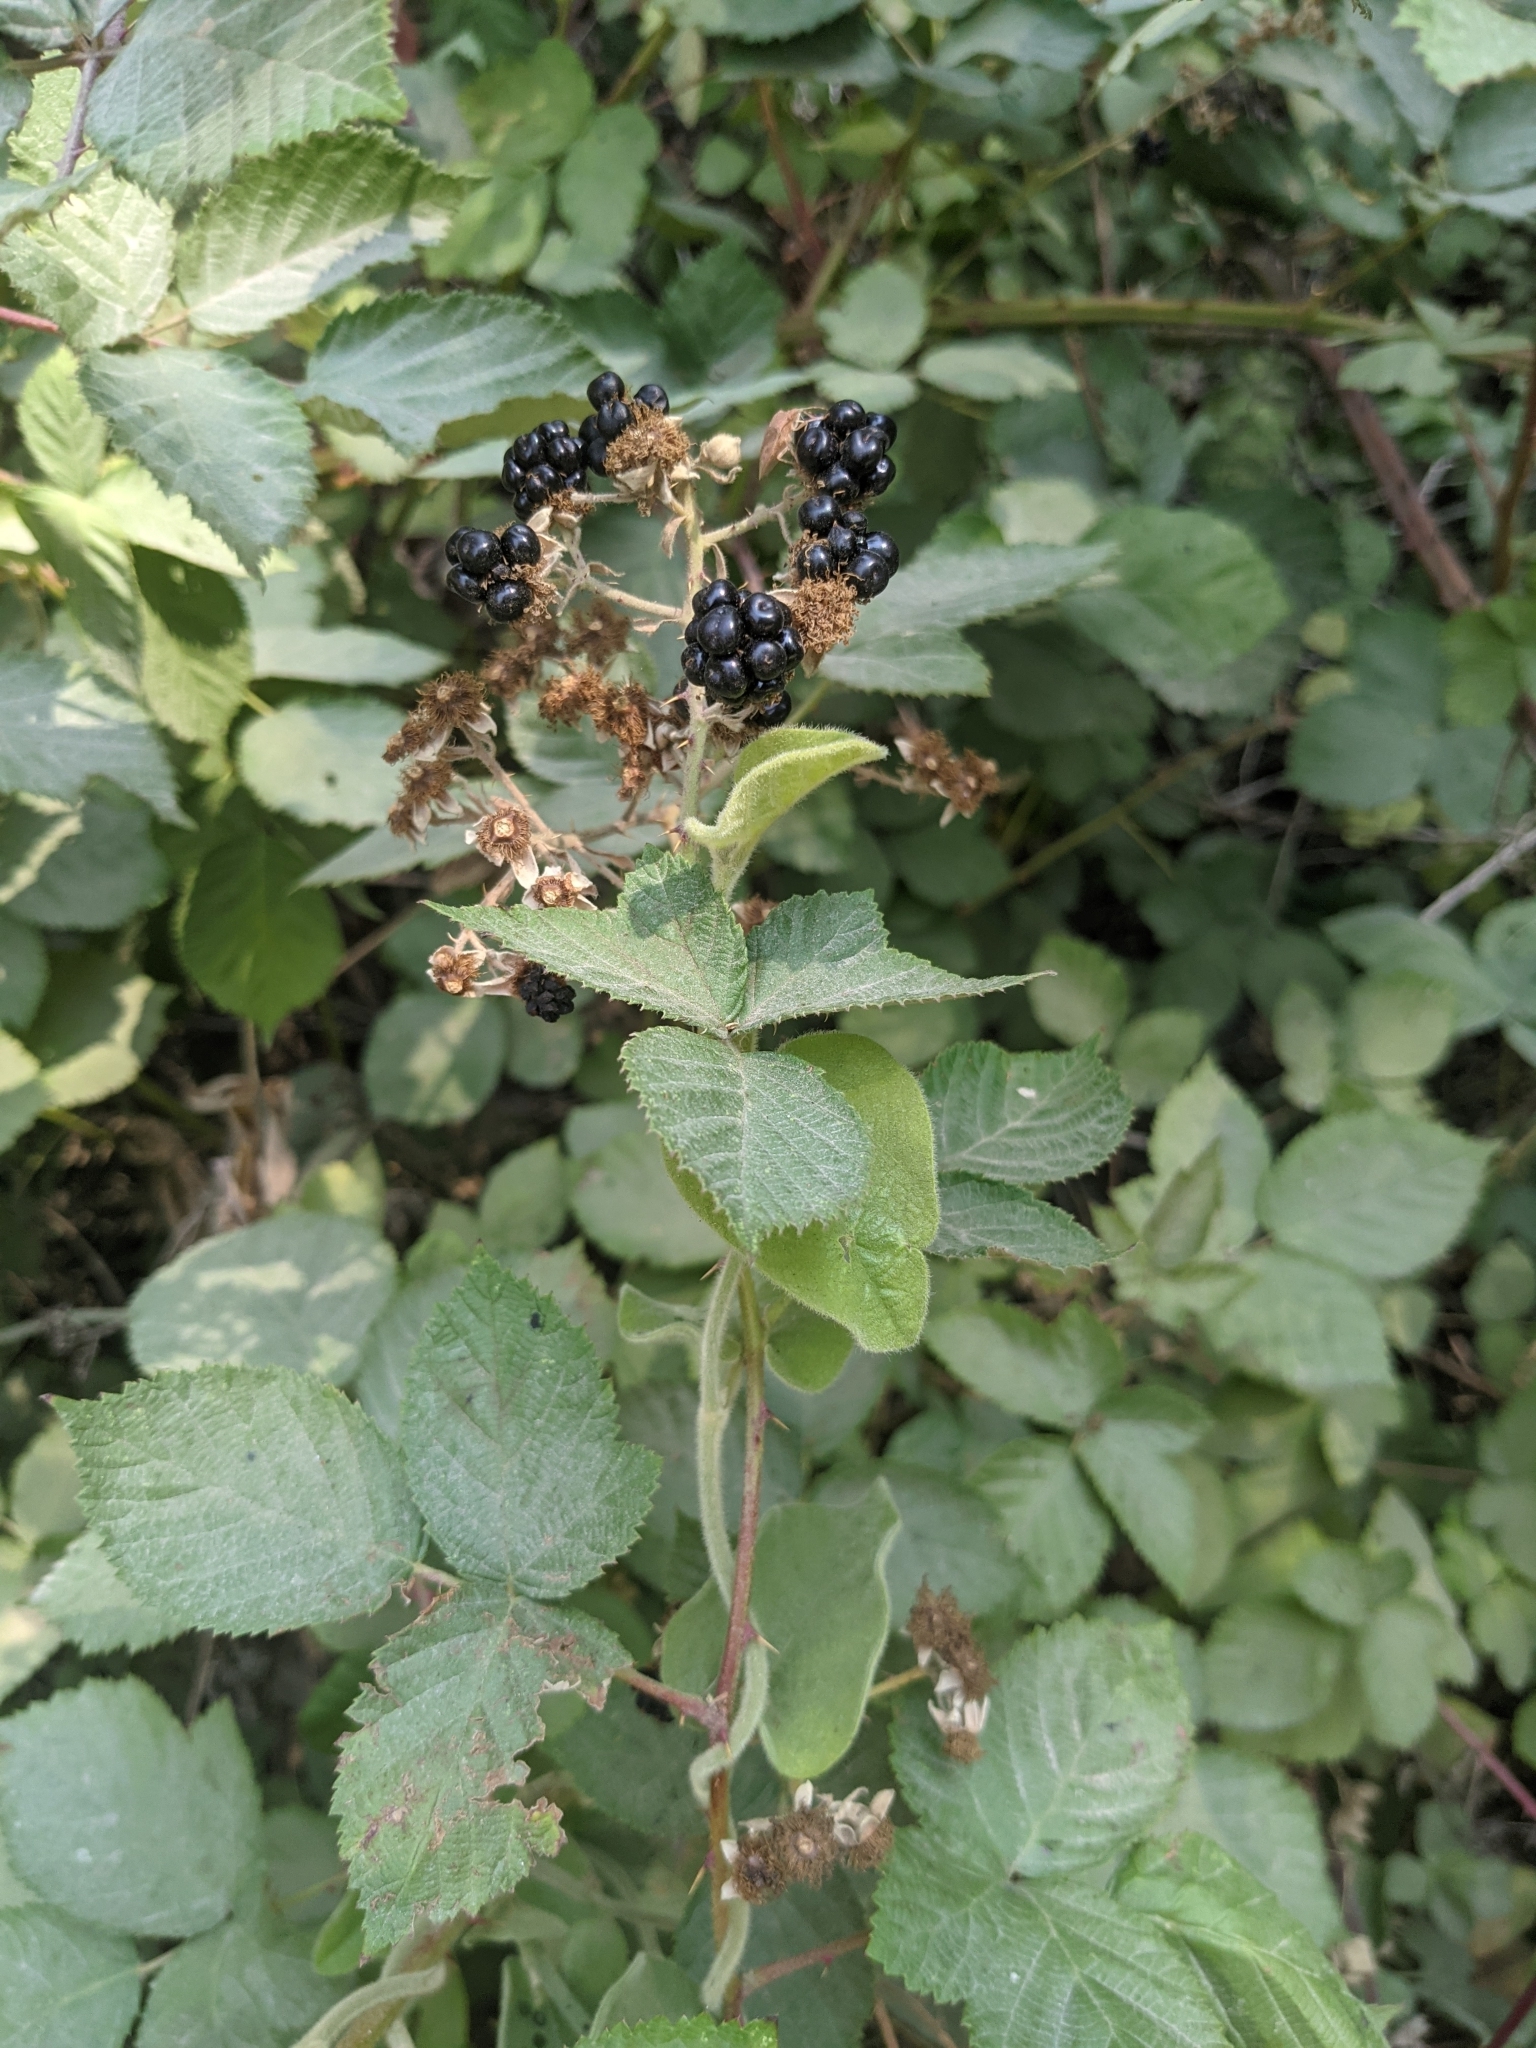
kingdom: Plantae
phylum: Tracheophyta
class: Magnoliopsida
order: Rosales
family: Rosaceae
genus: Rubus
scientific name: Rubus armeniacus
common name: Himalayan blackberry
